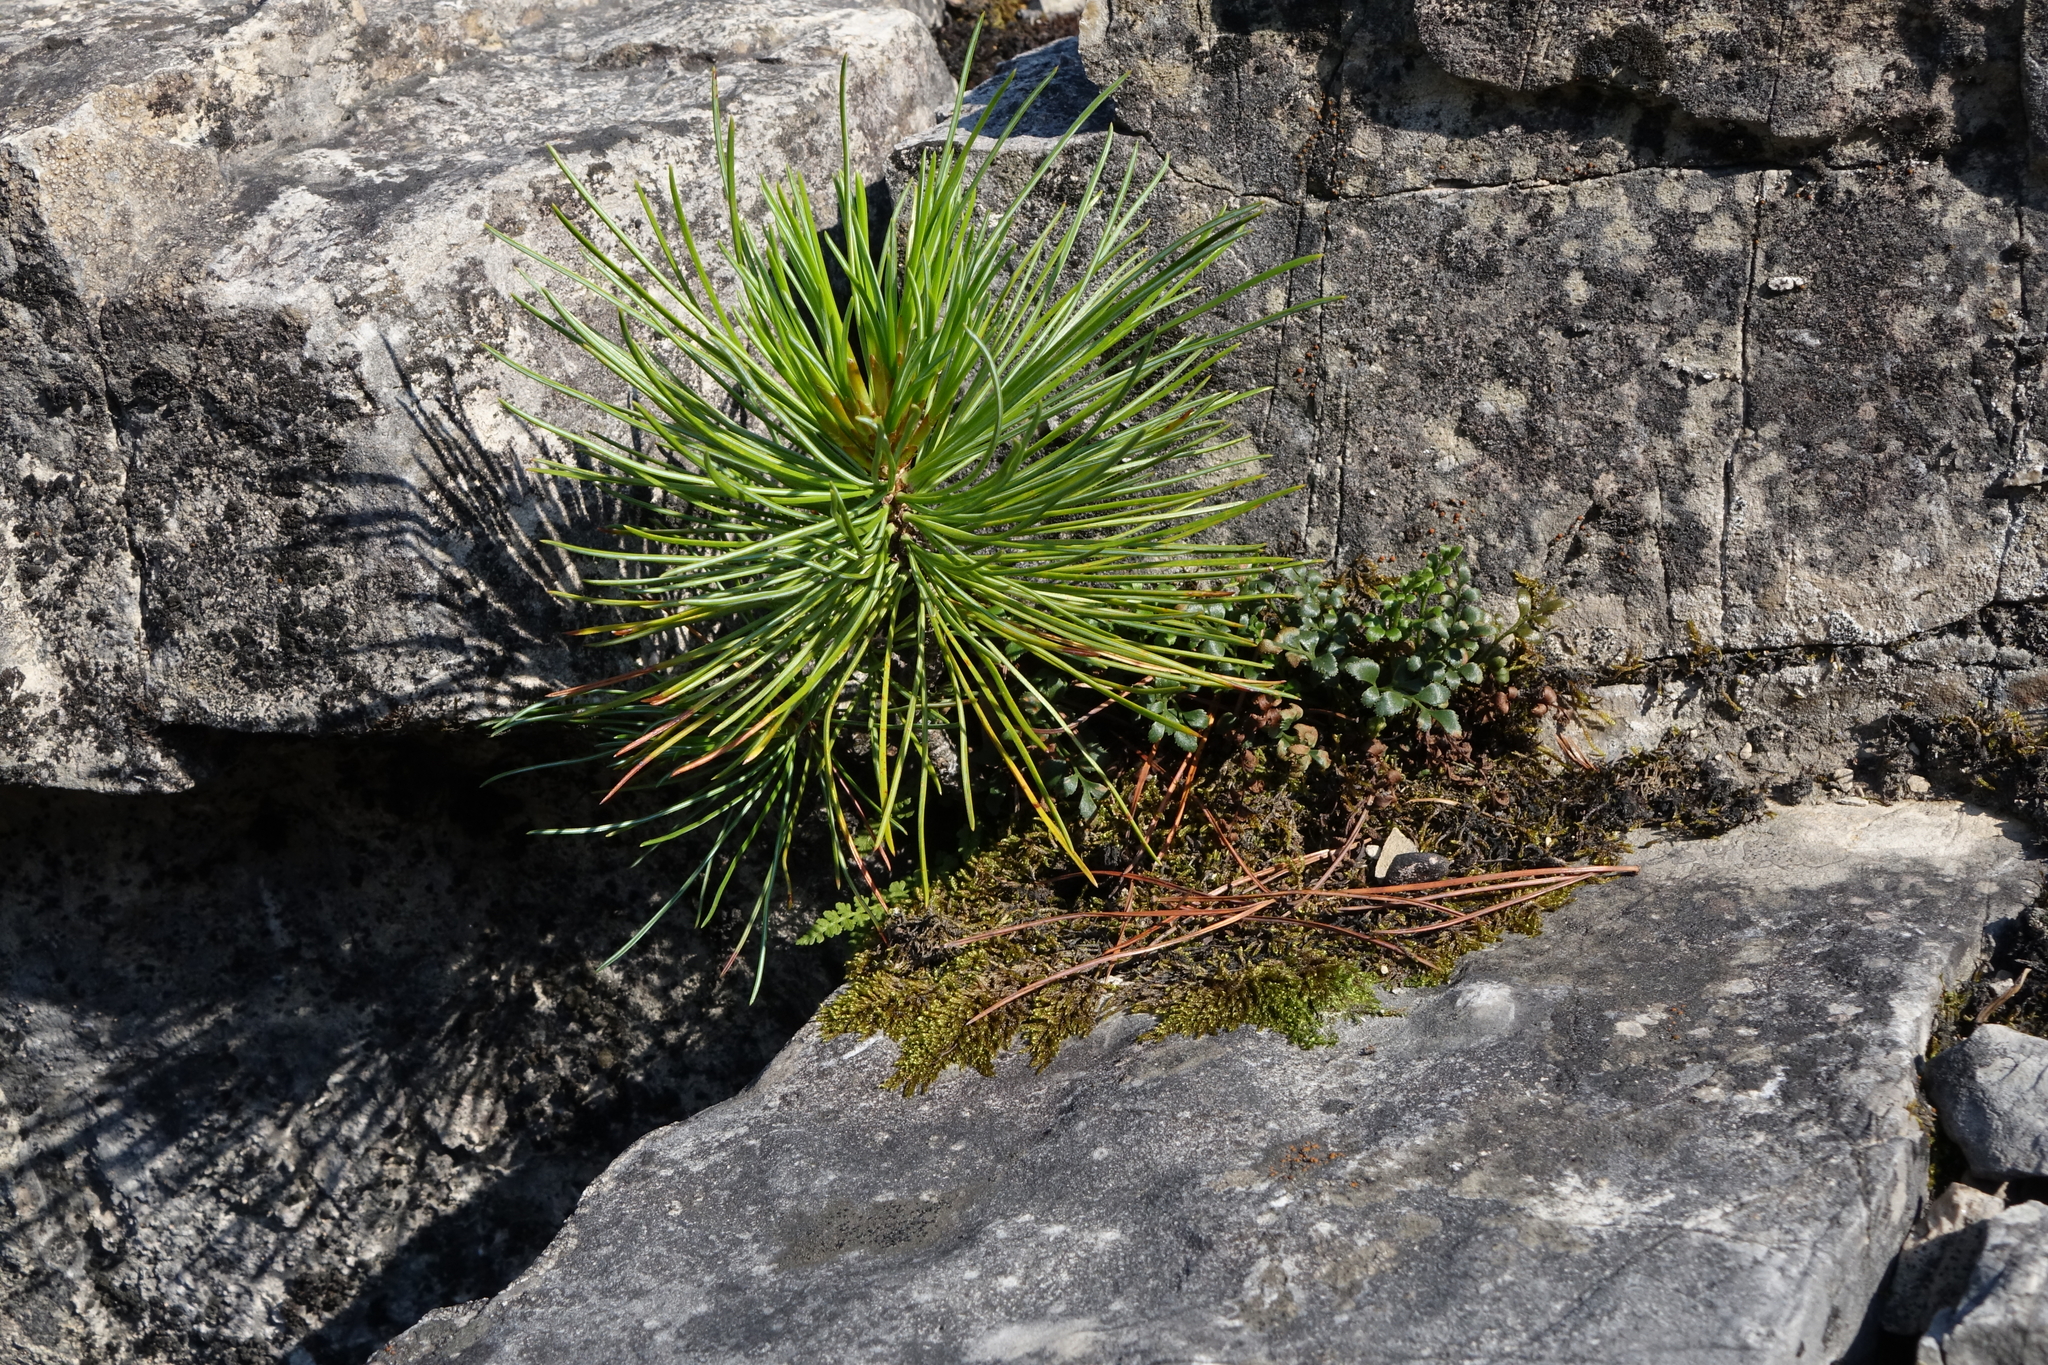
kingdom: Plantae
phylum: Tracheophyta
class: Polypodiopsida
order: Polypodiales
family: Aspleniaceae
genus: Asplenium
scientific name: Asplenium ruta-muraria
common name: Wall-rue
